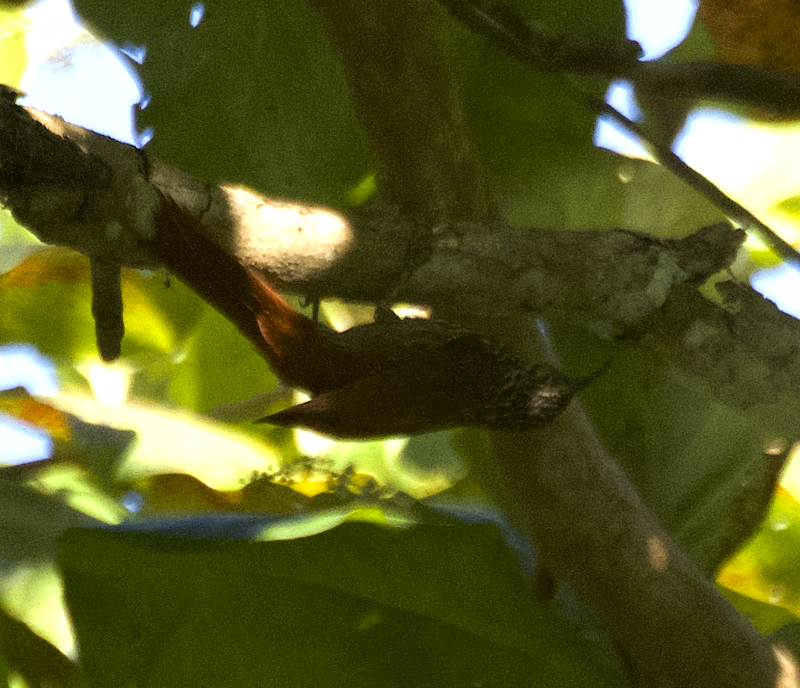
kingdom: Animalia
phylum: Chordata
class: Aves
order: Passeriformes
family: Furnariidae
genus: Lepidocolaptes
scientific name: Lepidocolaptes souleyetii
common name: Streak-headed woodcreeper
